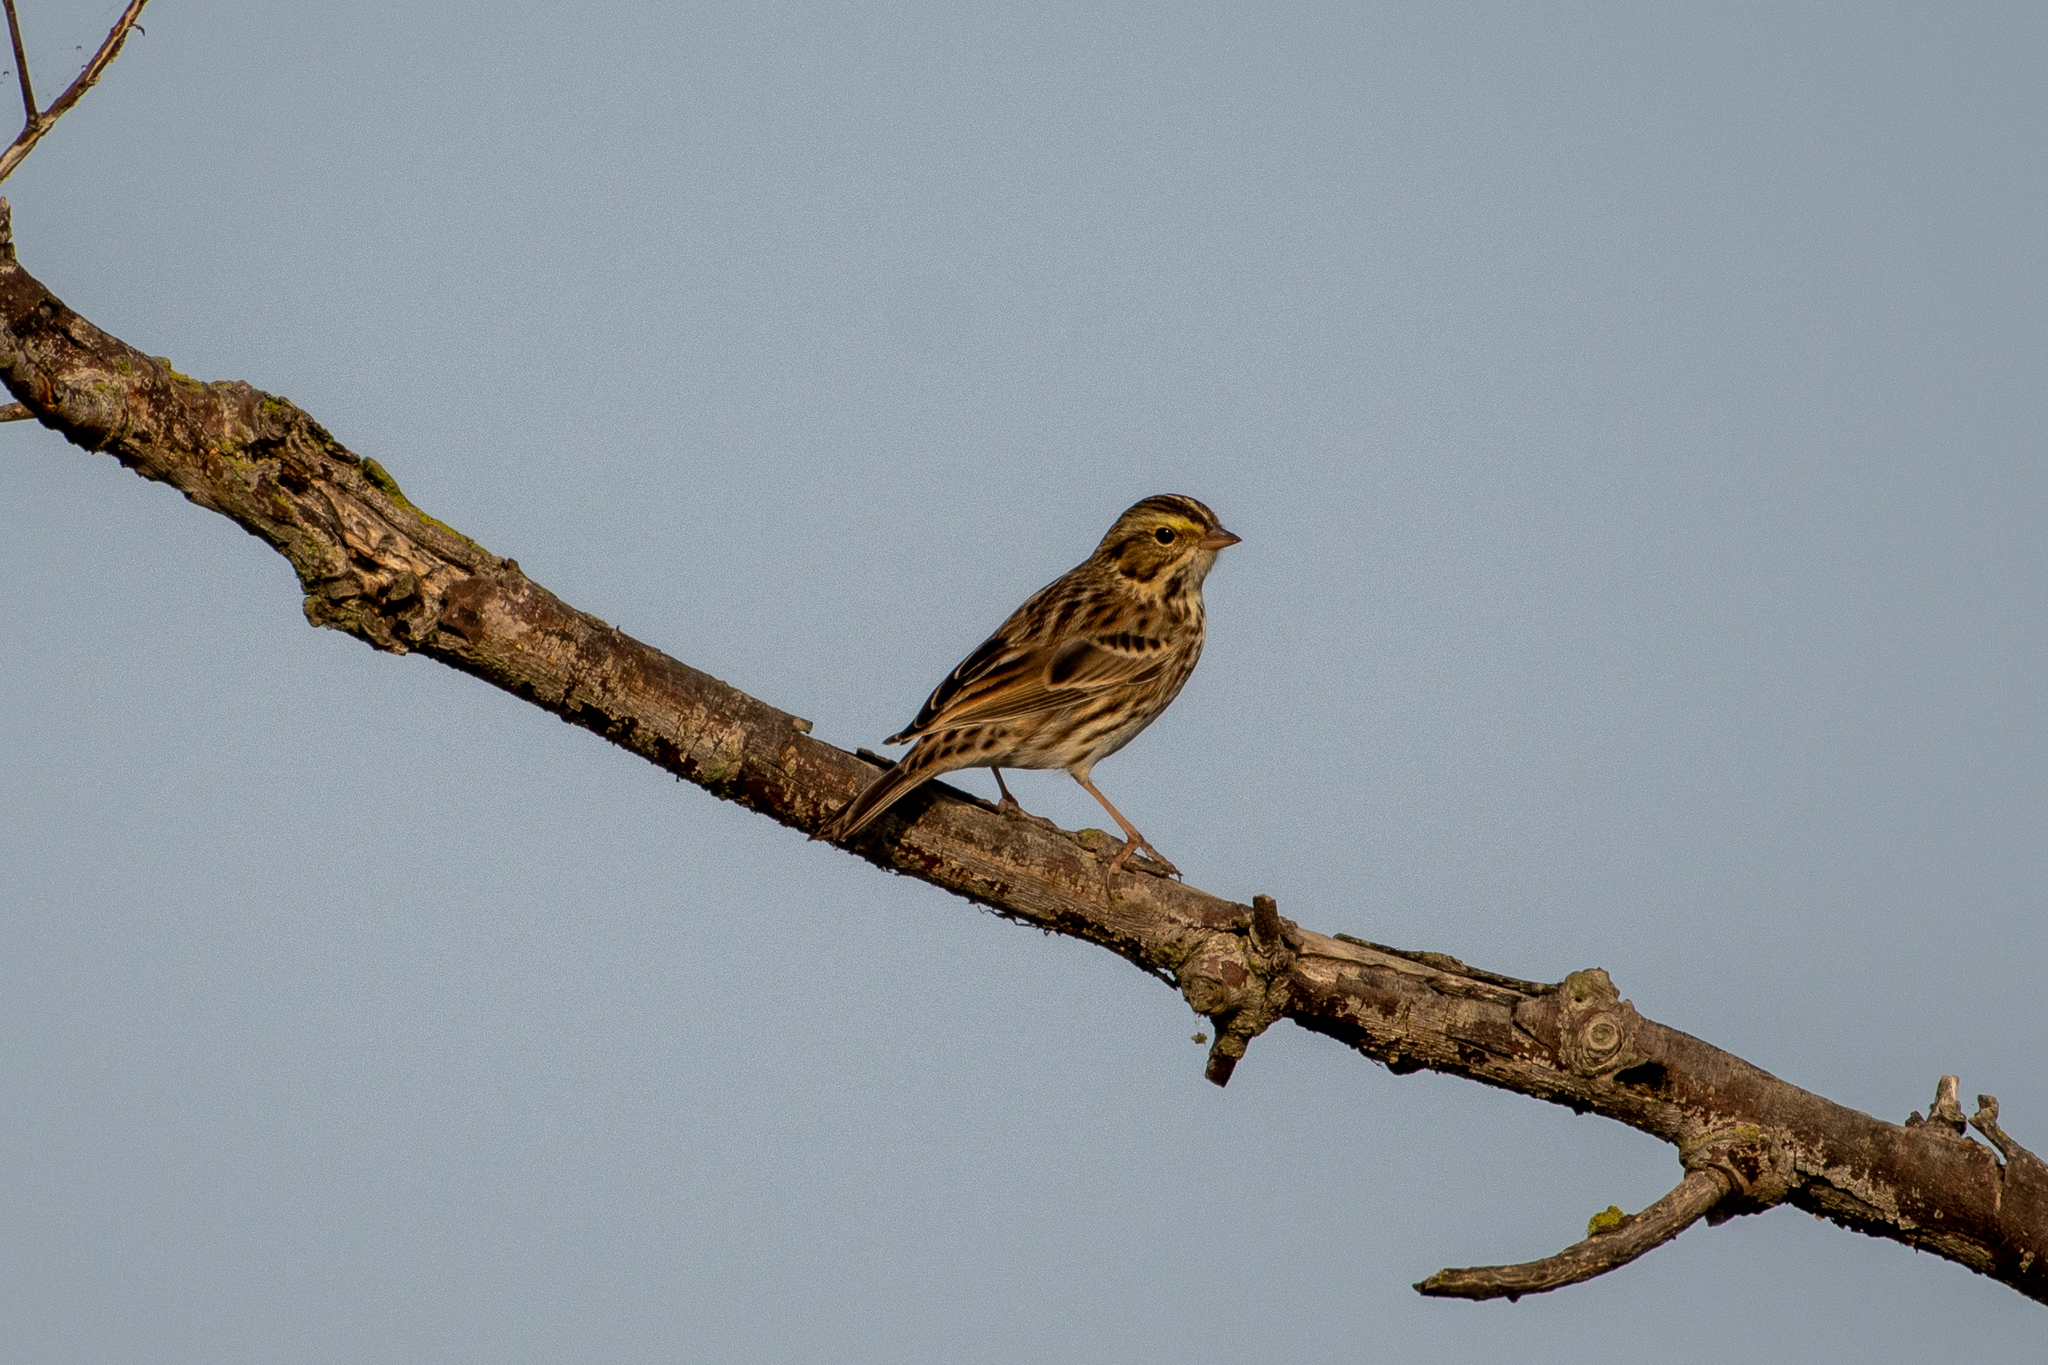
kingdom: Animalia
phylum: Chordata
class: Aves
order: Passeriformes
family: Passerellidae
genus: Passerculus
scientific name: Passerculus sandwichensis
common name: Savannah sparrow
